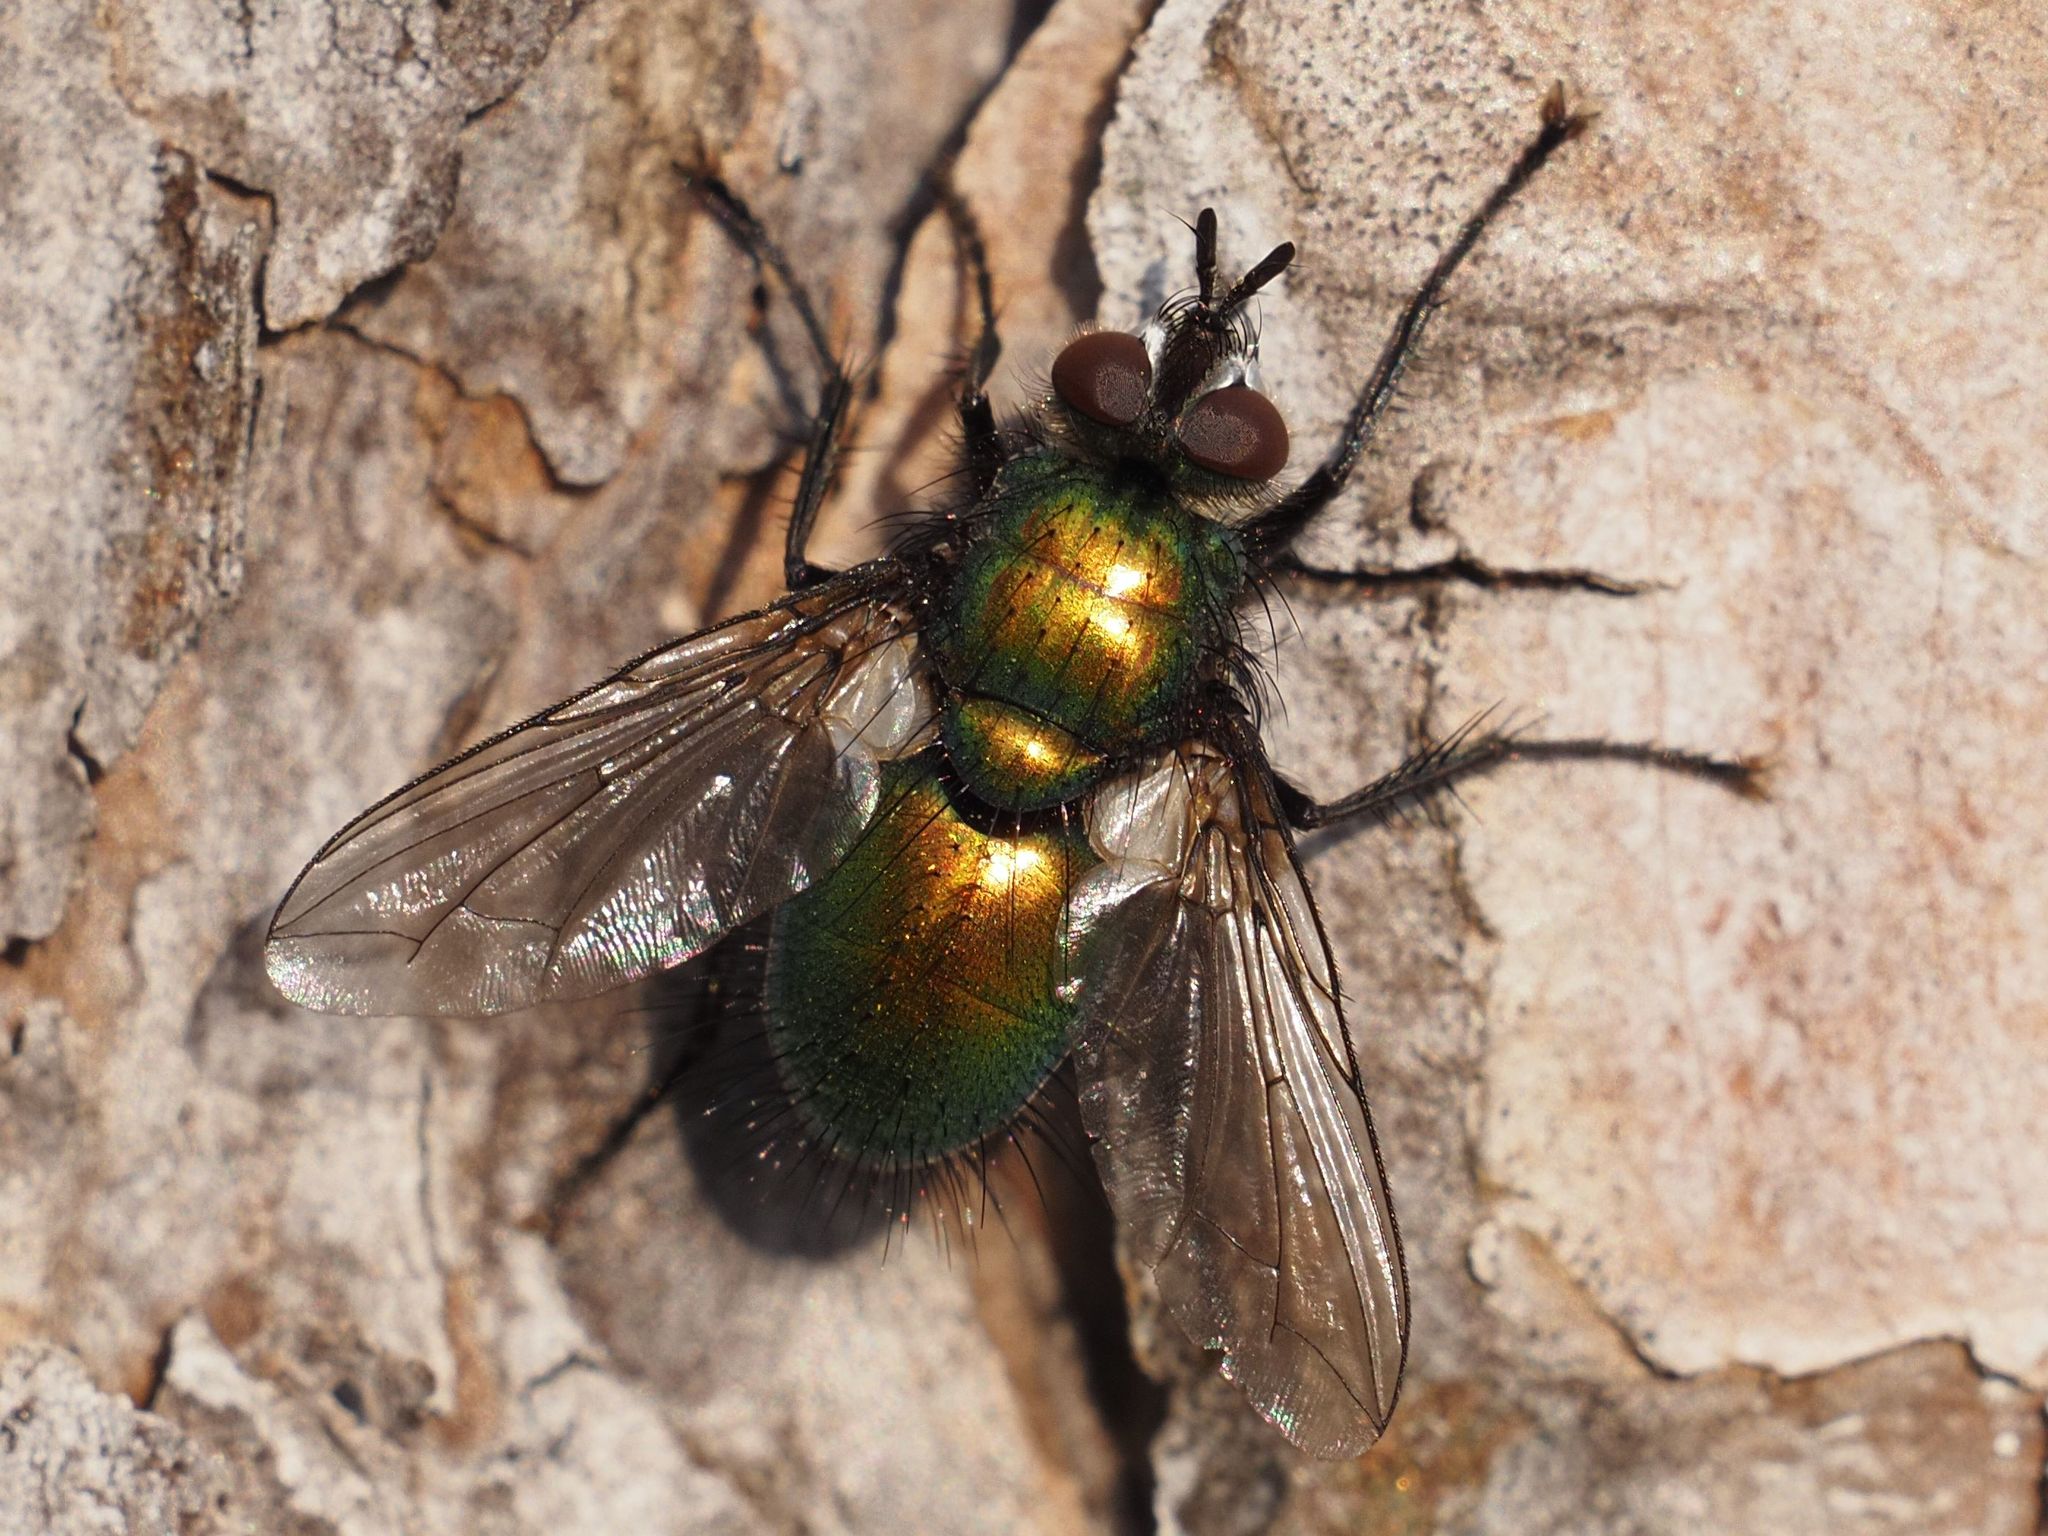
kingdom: Animalia
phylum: Arthropoda
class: Insecta
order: Diptera
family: Tachinidae
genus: Gymnocheta
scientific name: Gymnocheta viridis
